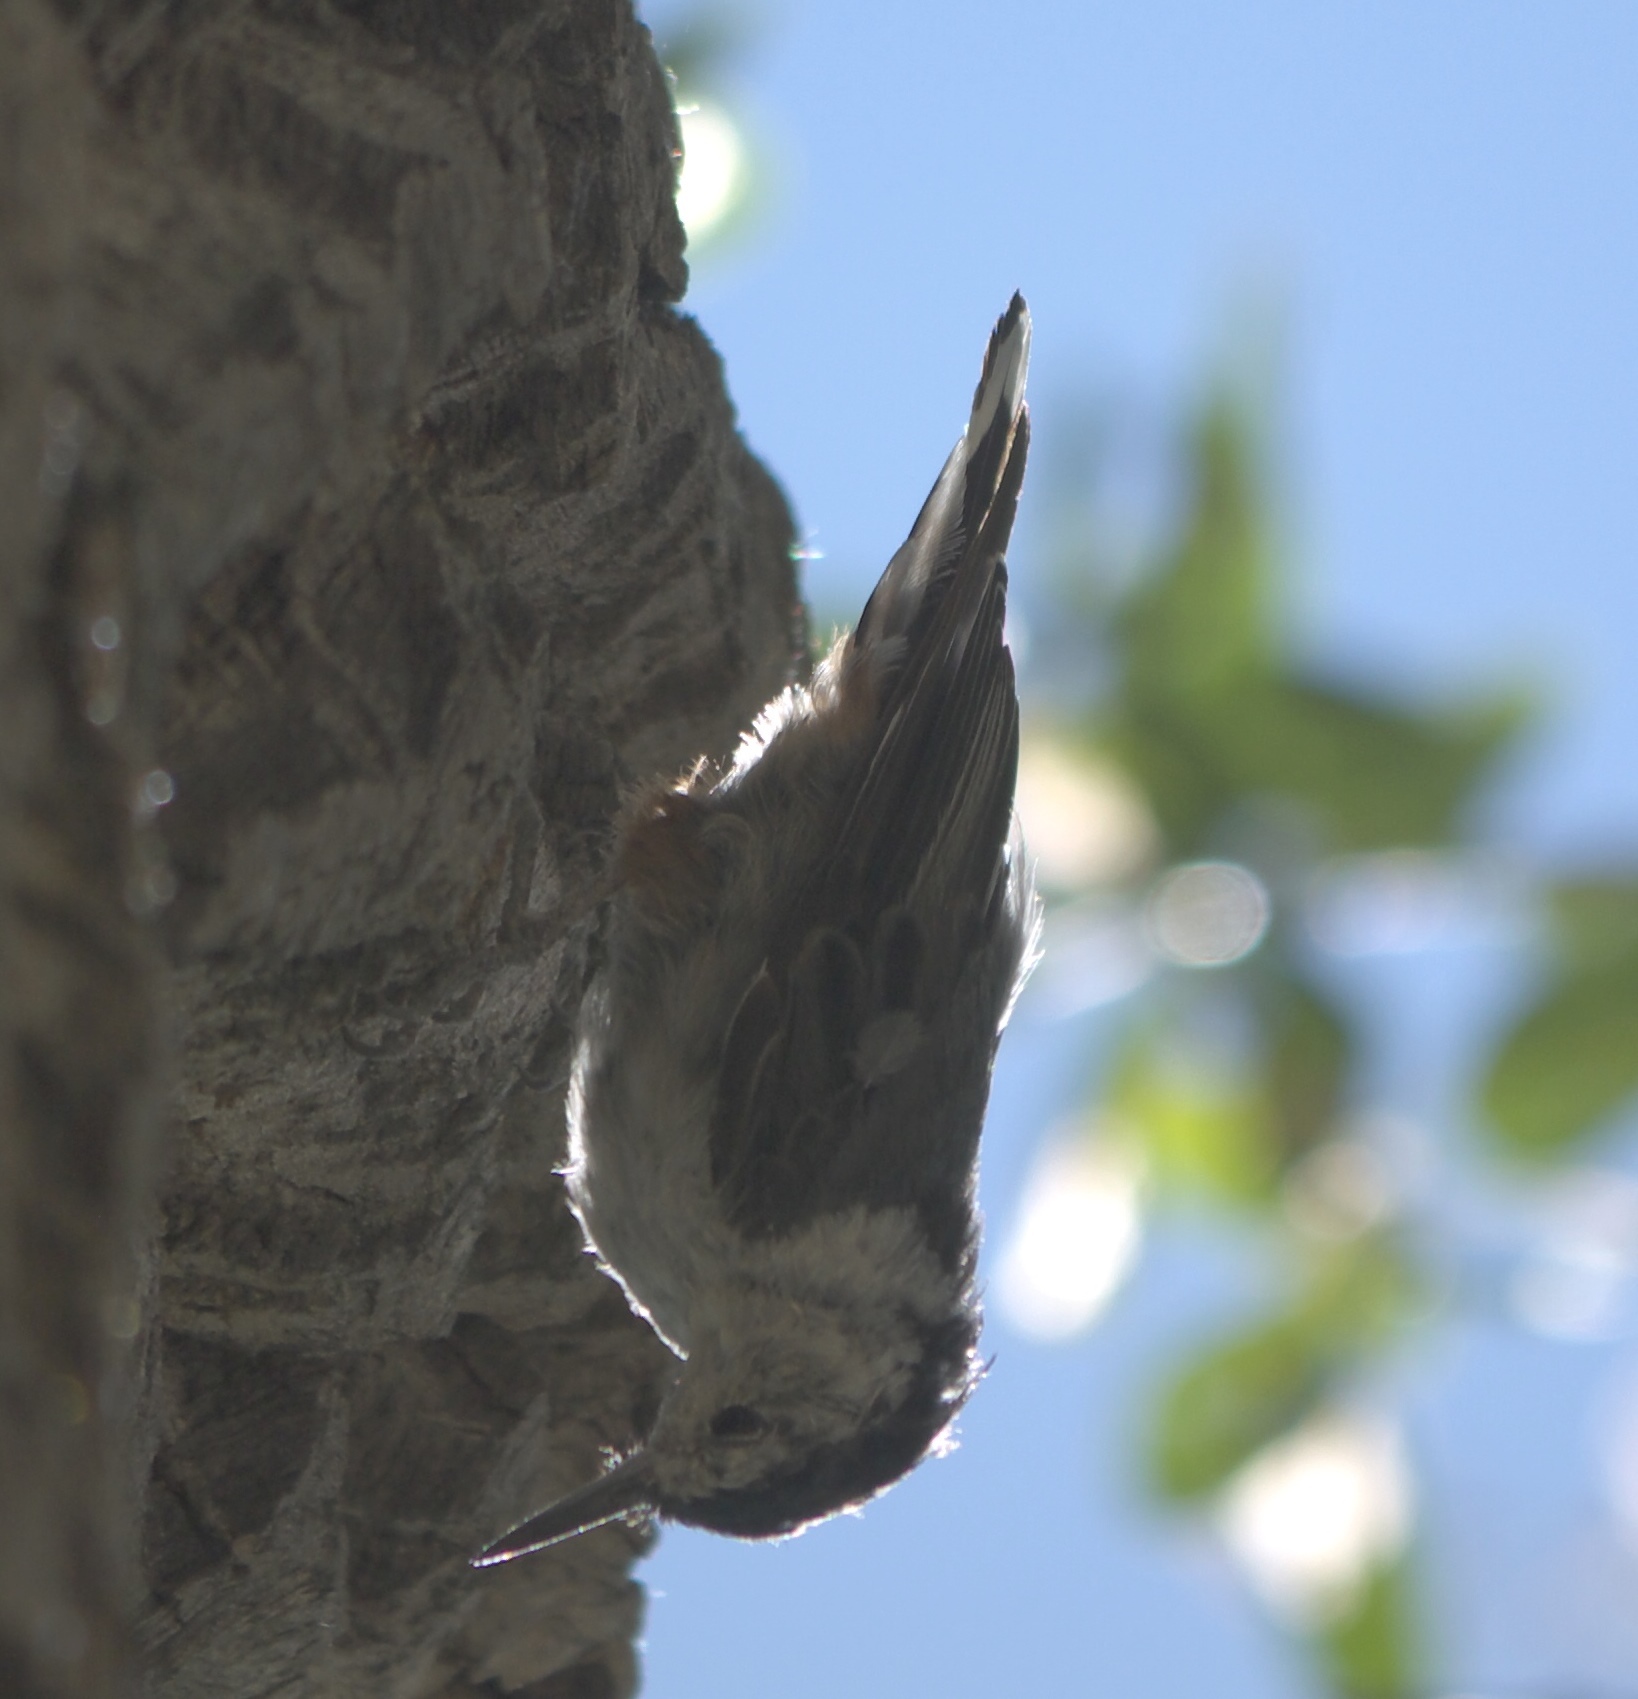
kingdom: Animalia
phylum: Chordata
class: Aves
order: Passeriformes
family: Sittidae
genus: Sitta
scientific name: Sitta carolinensis
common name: White-breasted nuthatch
